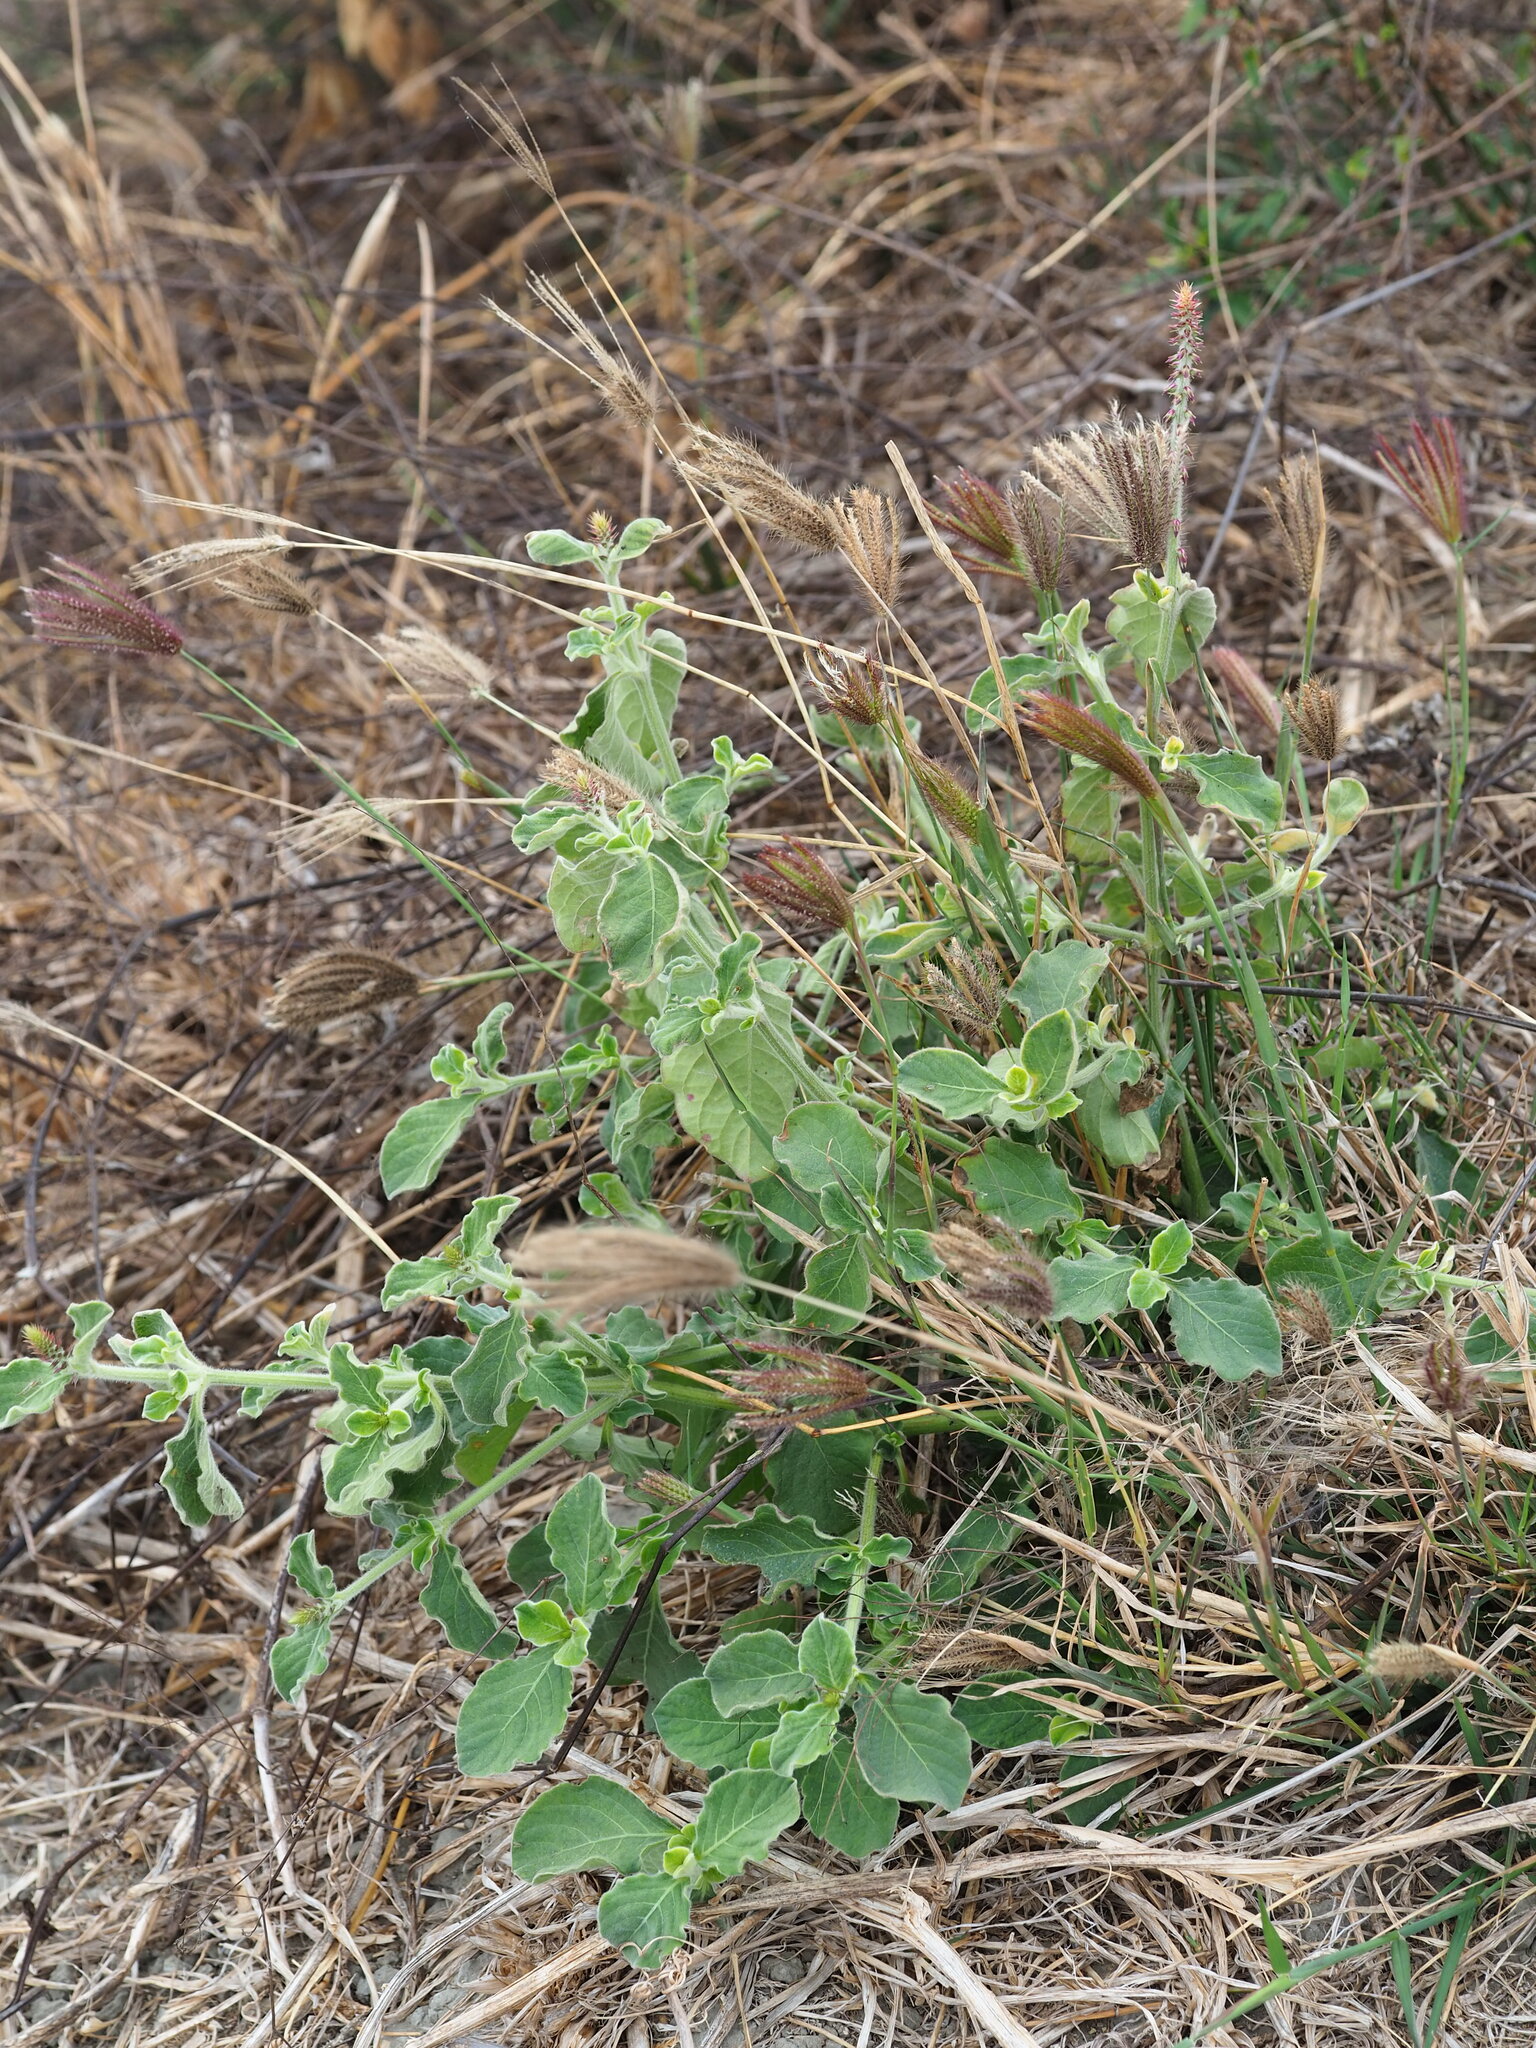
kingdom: Plantae
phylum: Tracheophyta
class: Magnoliopsida
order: Caryophyllales
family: Amaranthaceae
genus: Achyranthes
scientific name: Achyranthes aspera
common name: Devil's horsewhip
